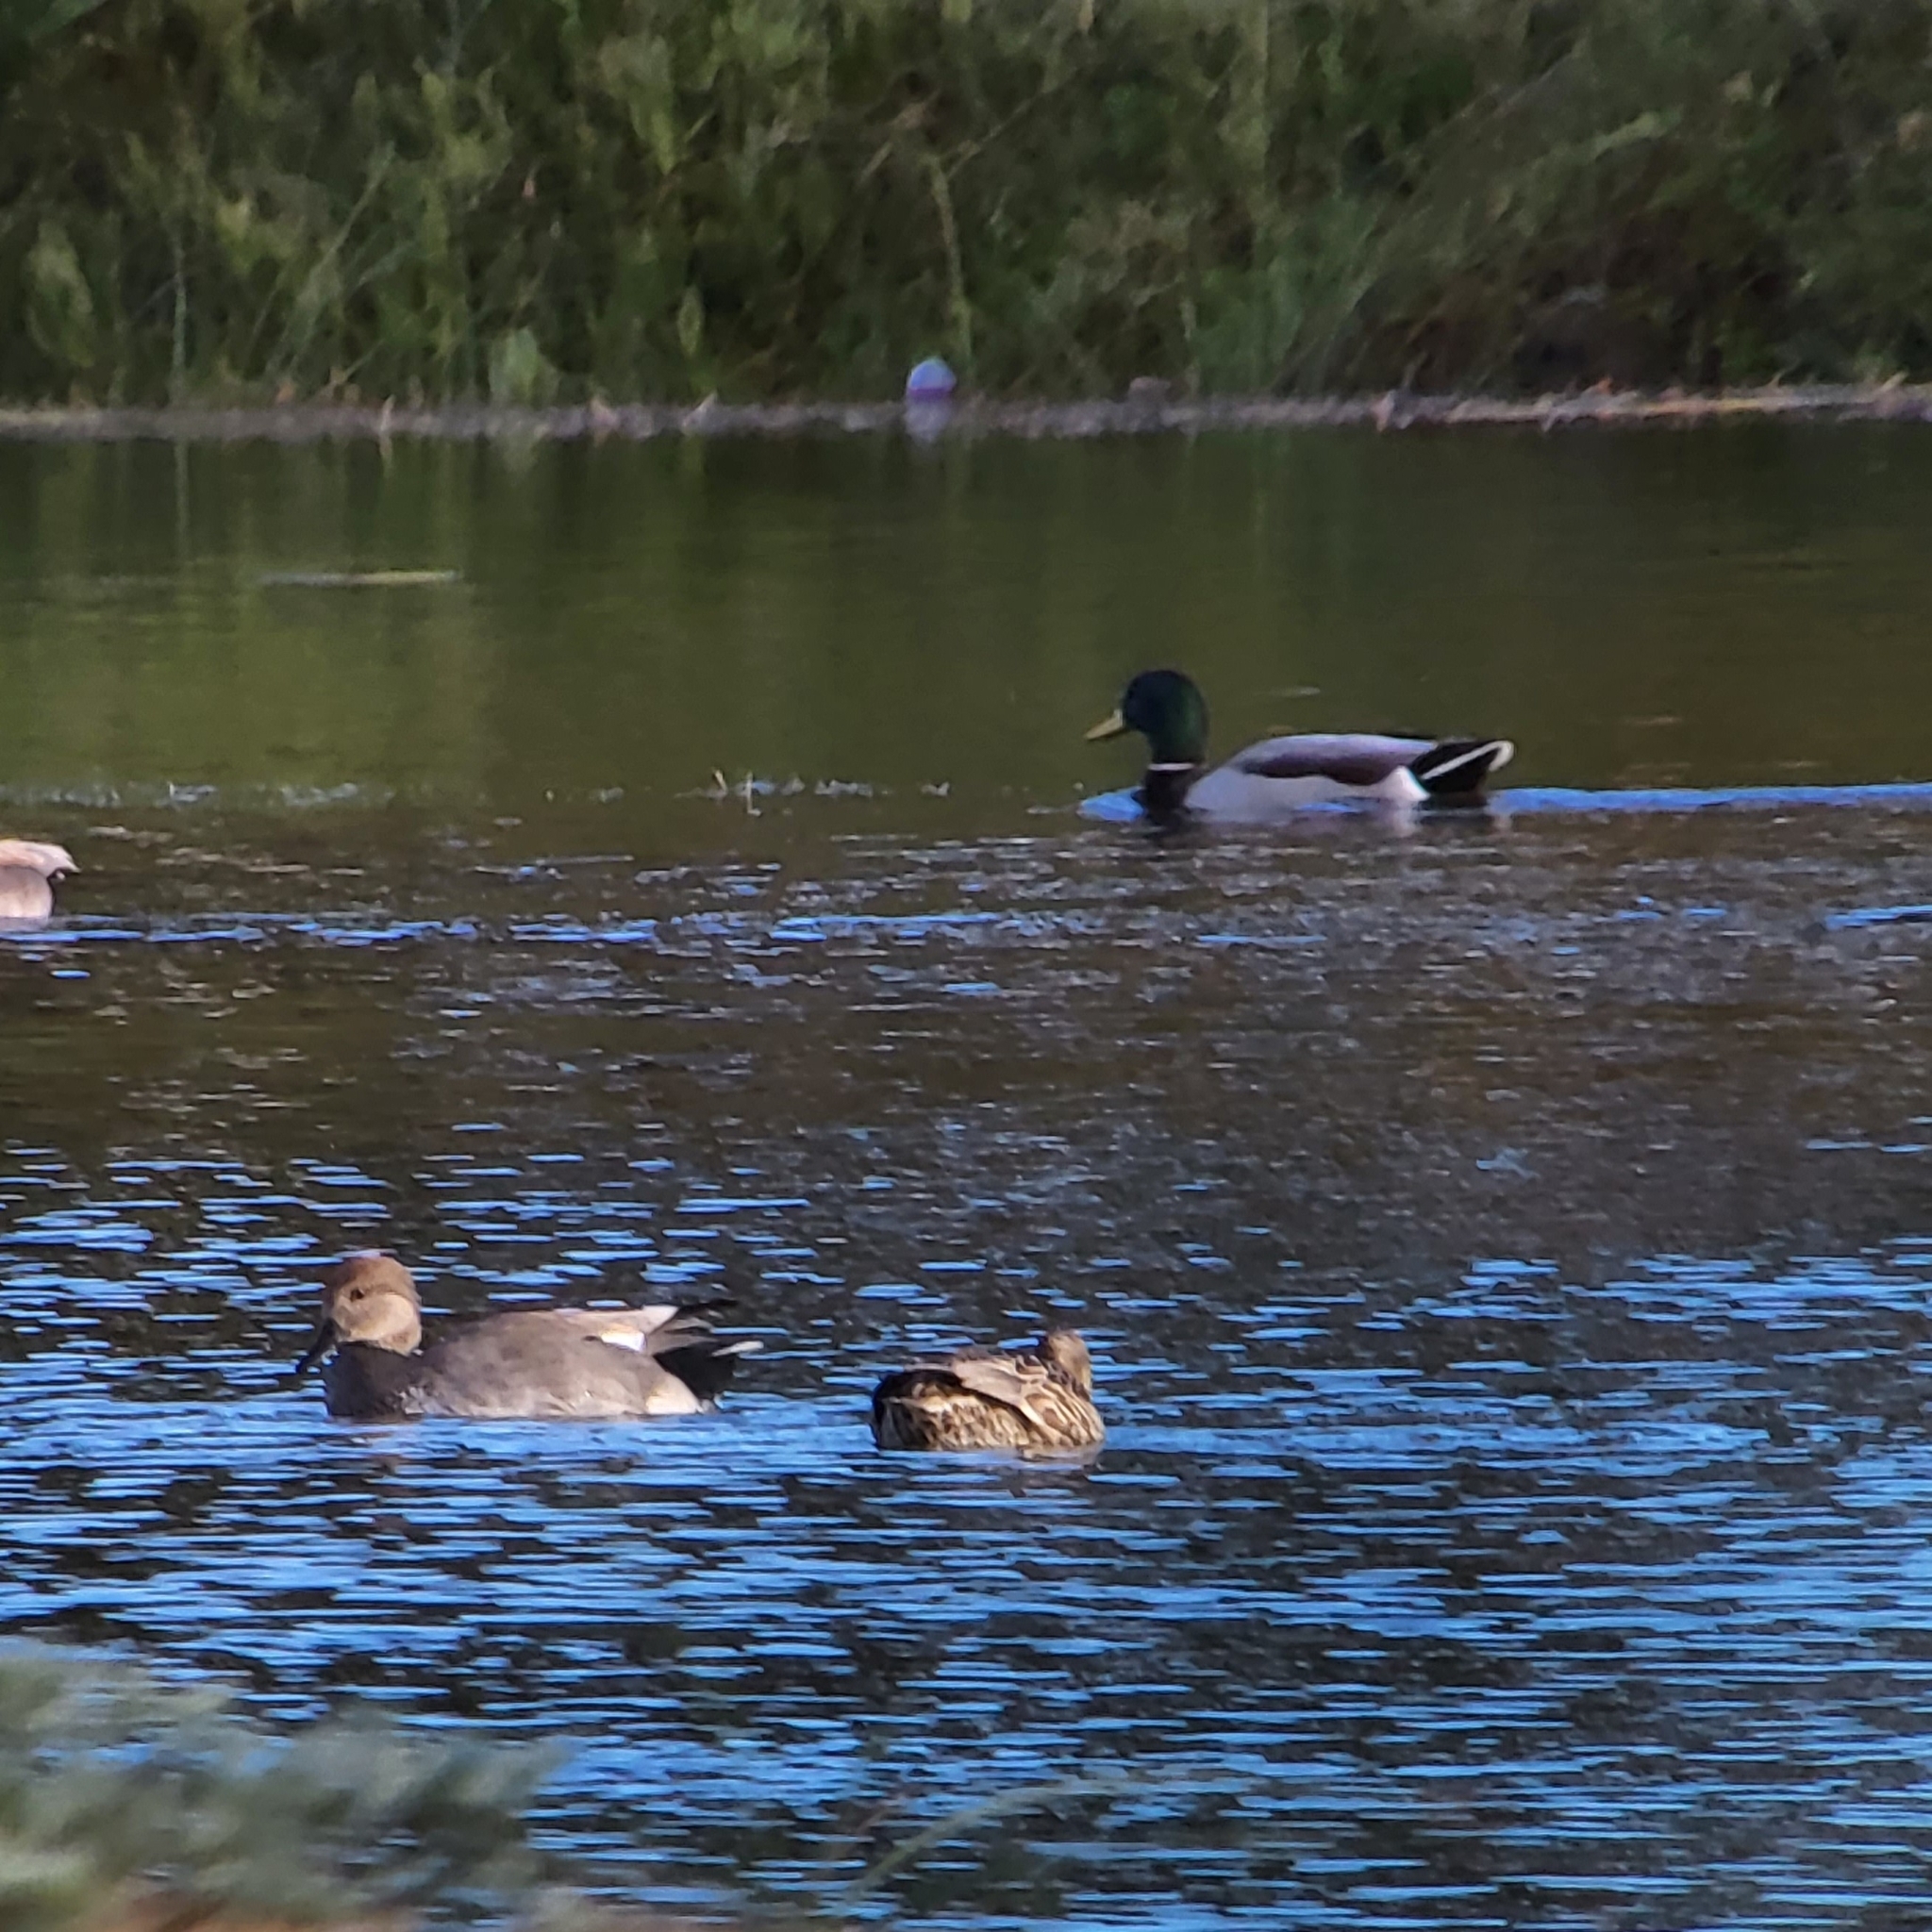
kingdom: Animalia
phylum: Chordata
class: Aves
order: Anseriformes
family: Anatidae
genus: Anas
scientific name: Anas platyrhynchos
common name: Mallard
